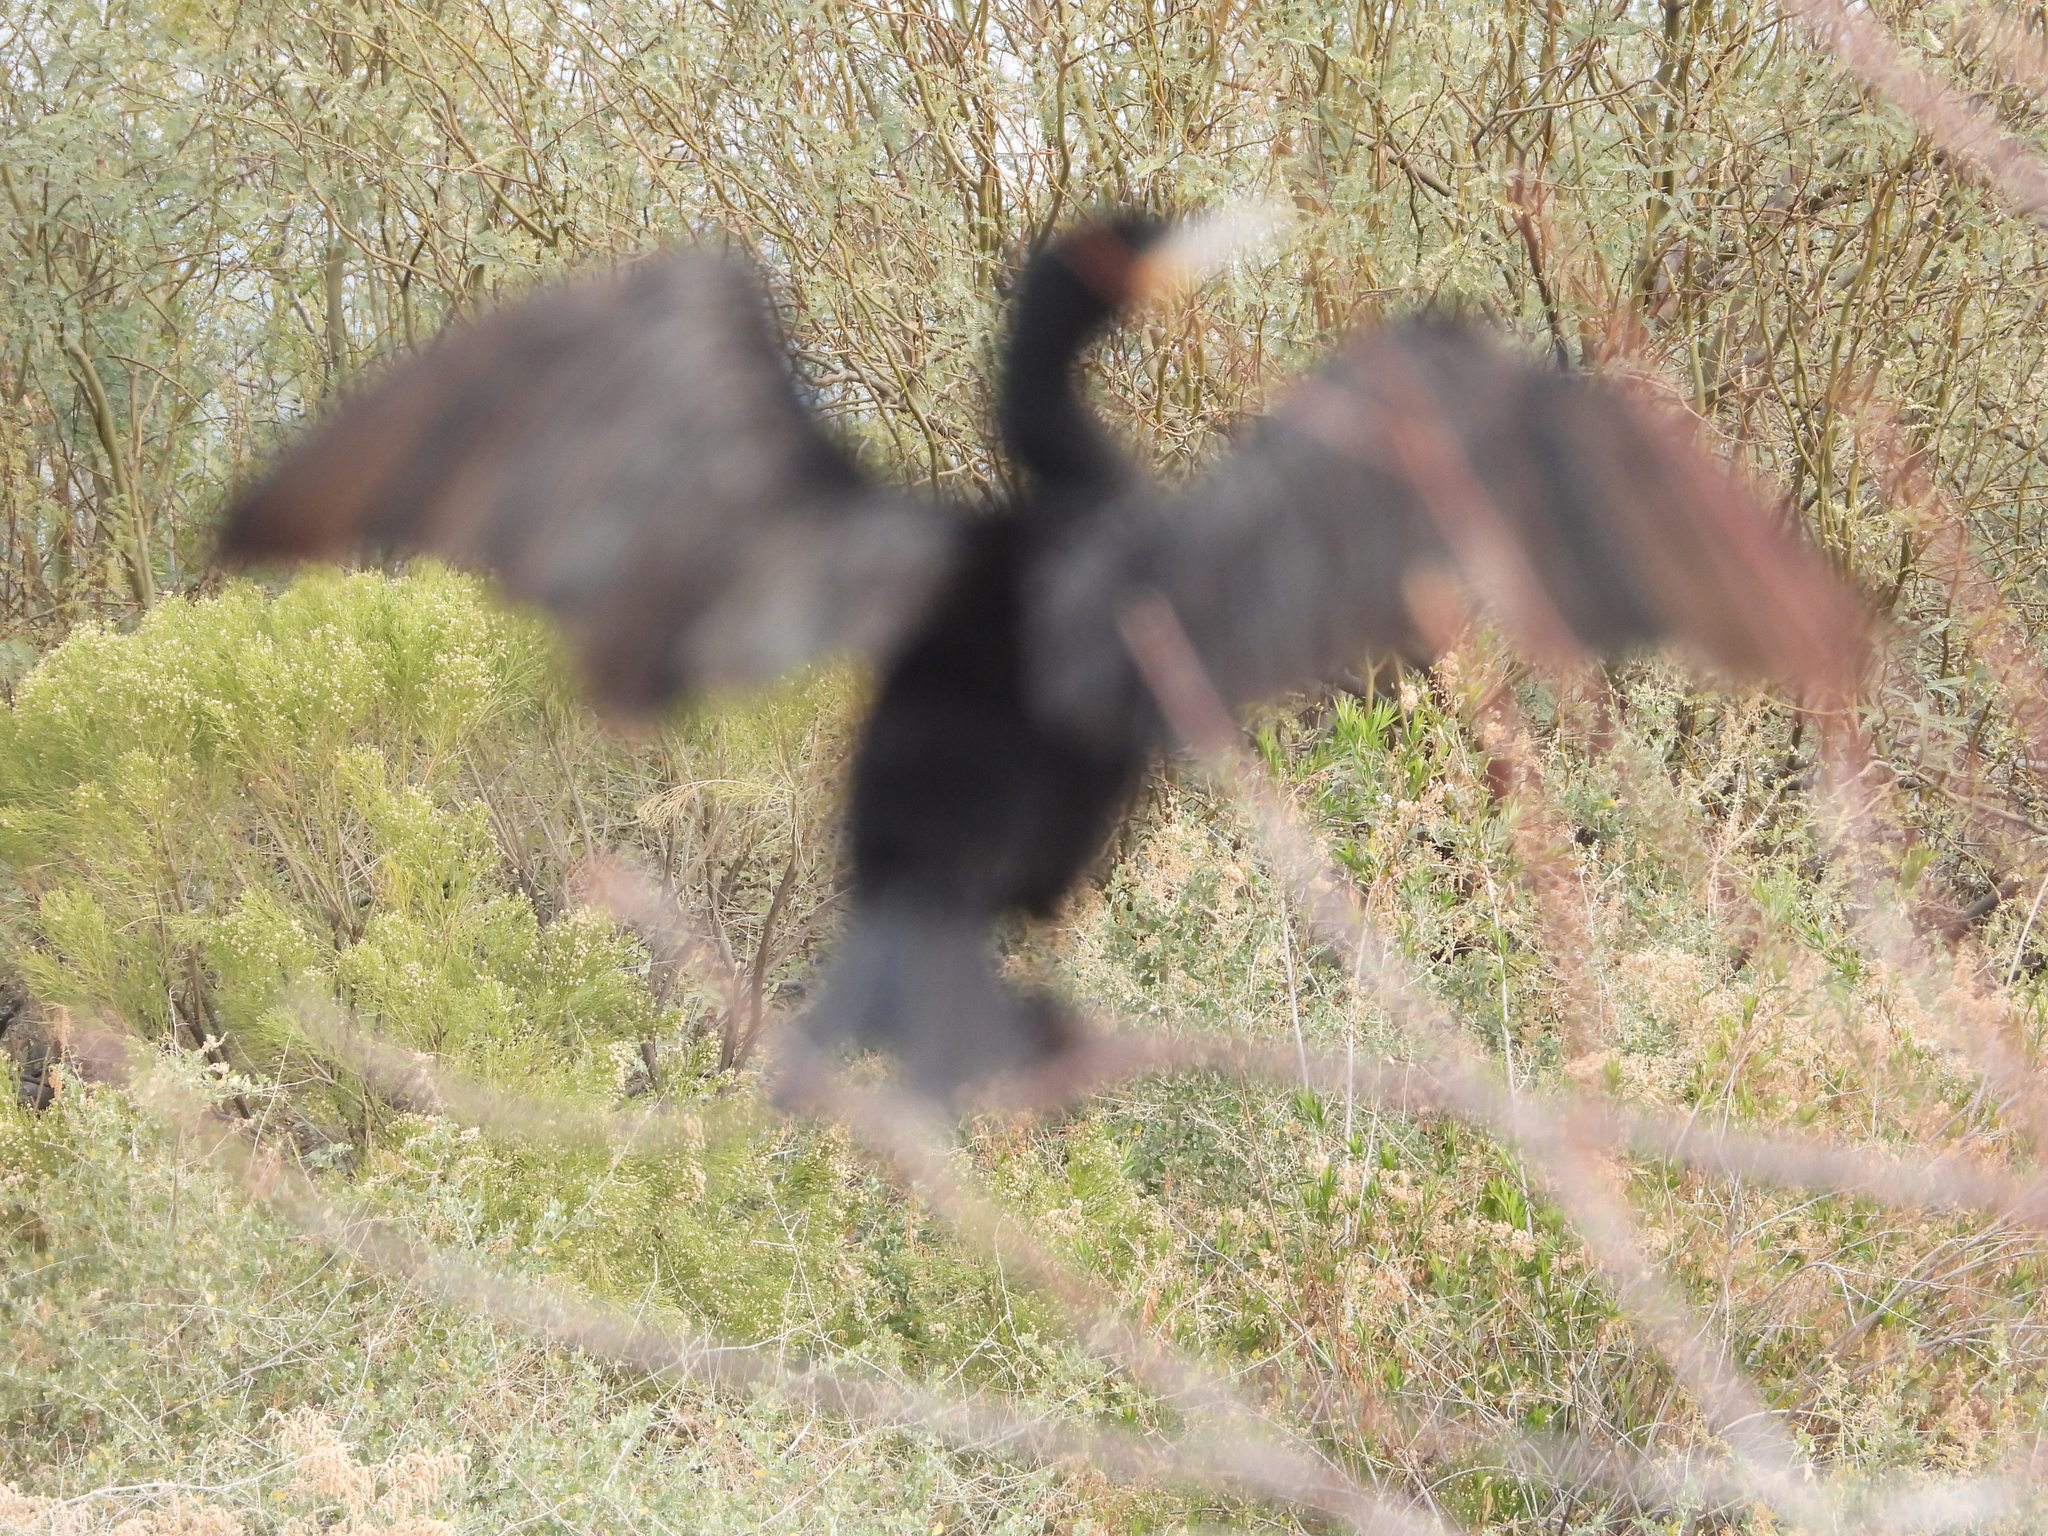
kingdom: Animalia
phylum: Chordata
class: Aves
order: Suliformes
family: Phalacrocoracidae
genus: Phalacrocorax
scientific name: Phalacrocorax brasilianus
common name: Neotropic cormorant
